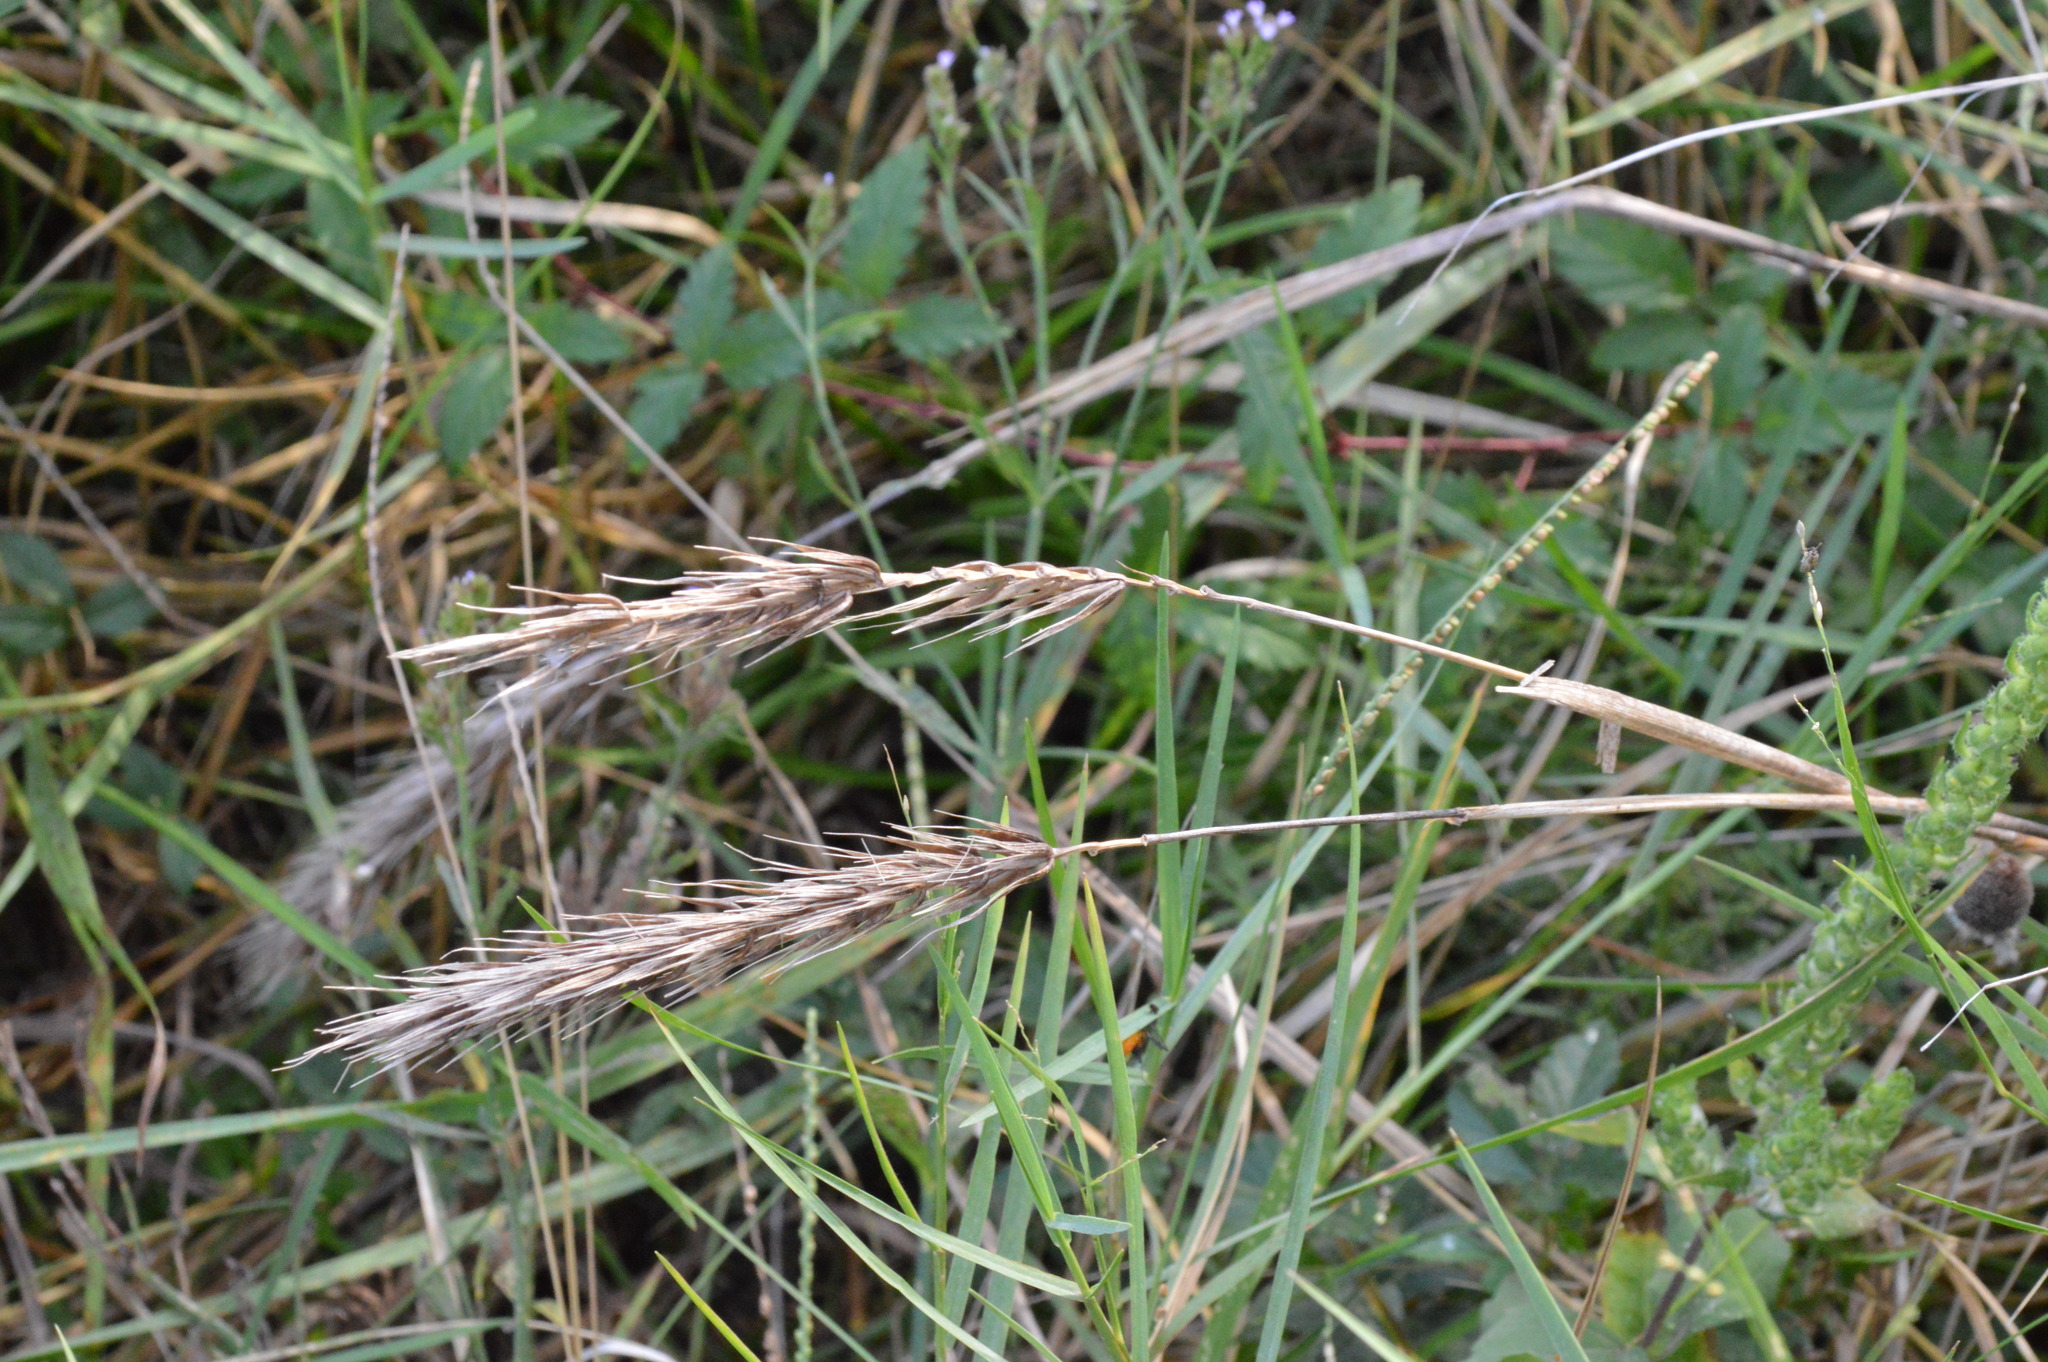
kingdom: Plantae
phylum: Tracheophyta
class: Liliopsida
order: Poales
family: Poaceae
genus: Elymus
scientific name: Elymus virginicus
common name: Common eastern wildrye
